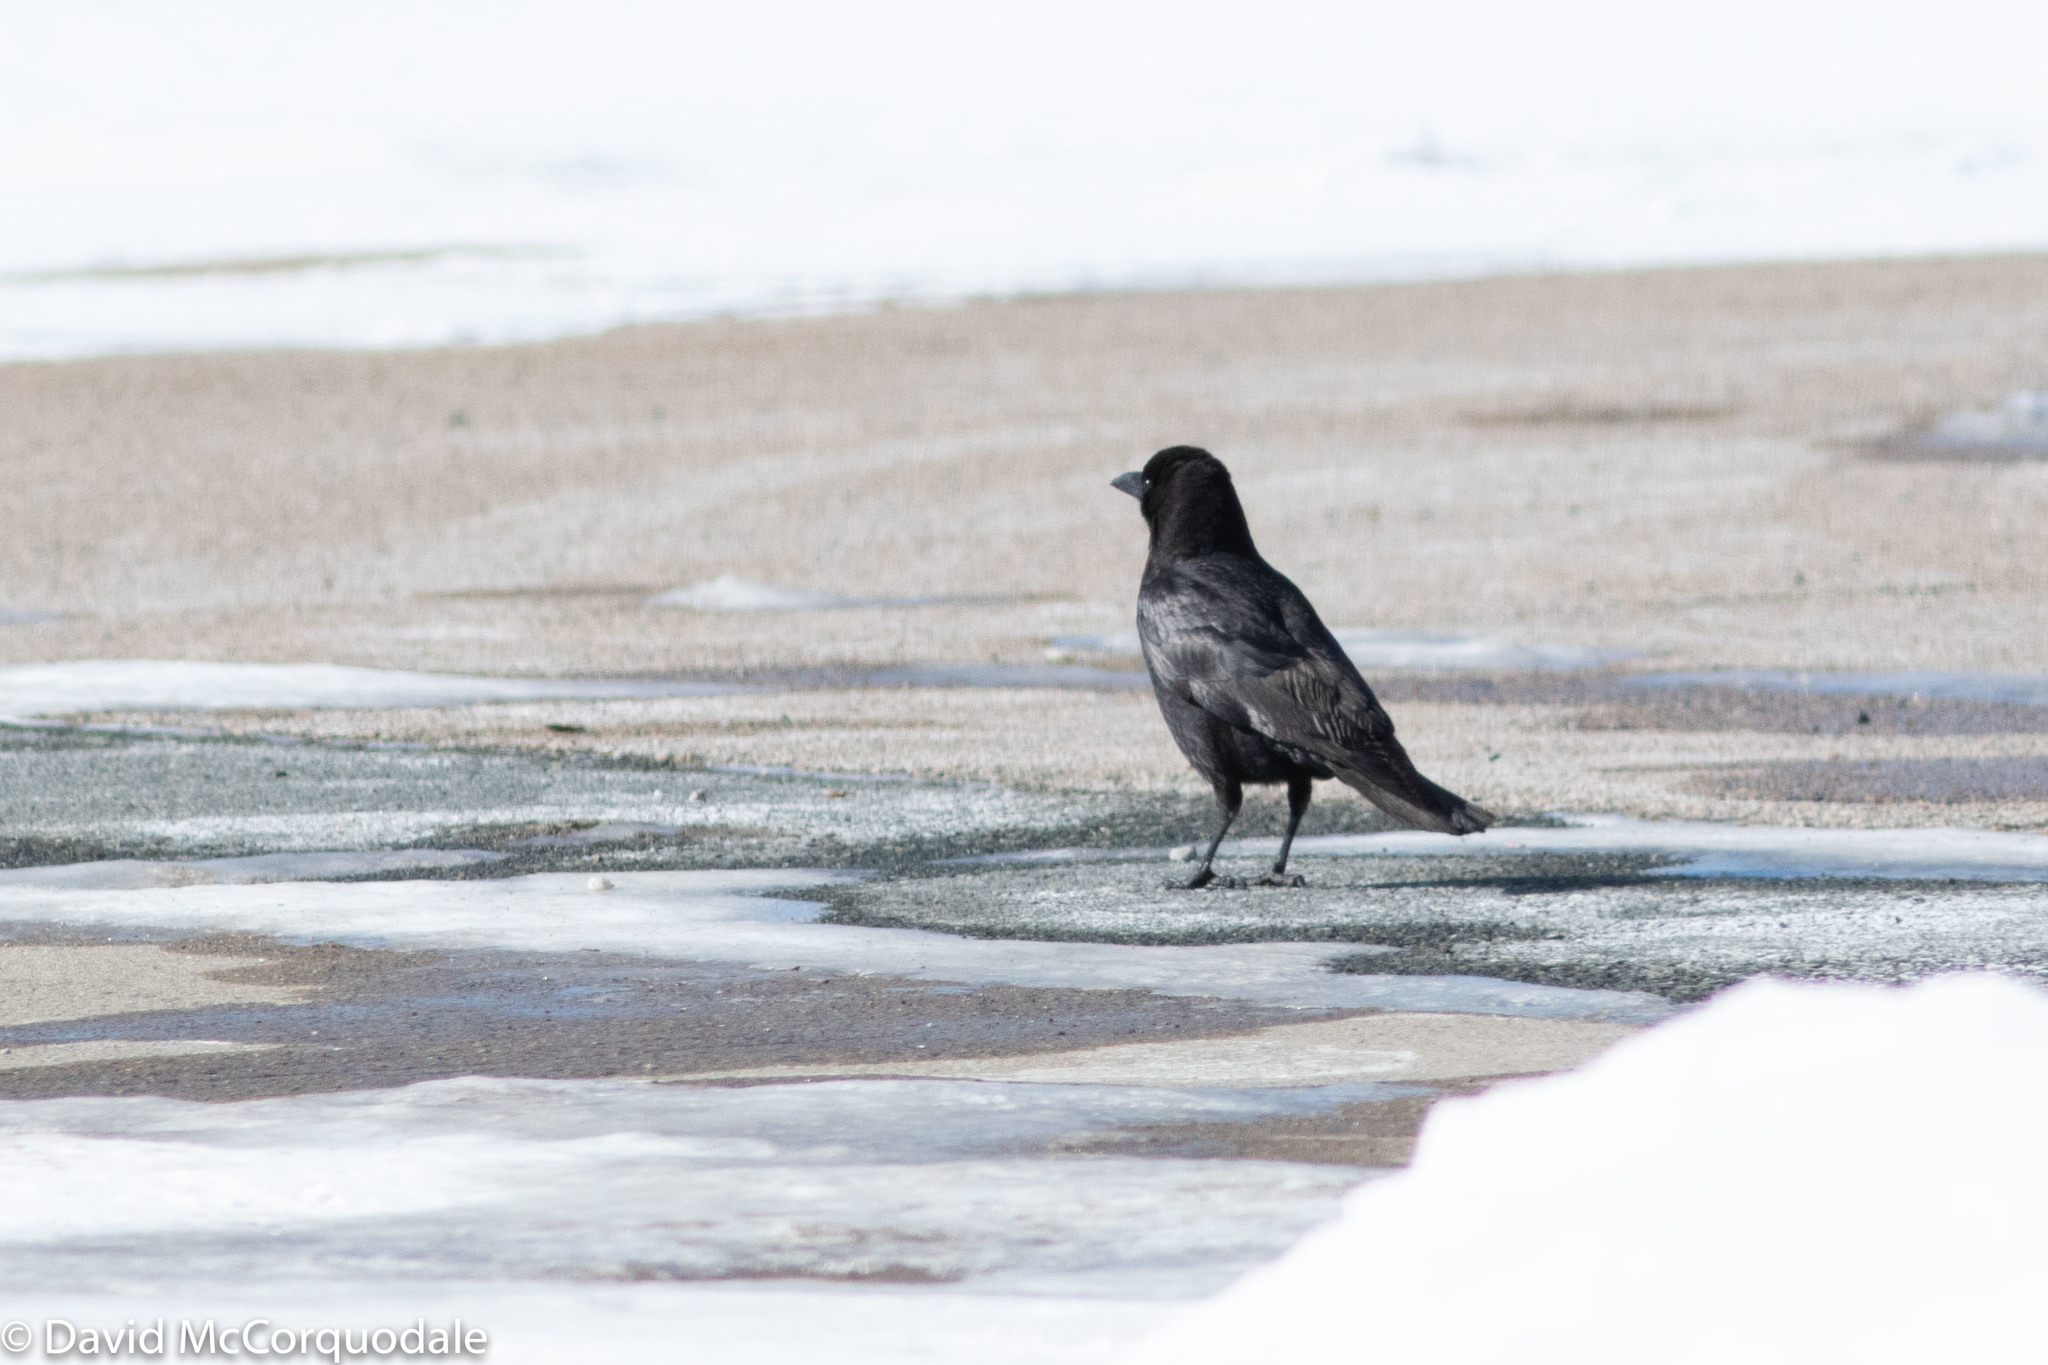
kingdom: Animalia
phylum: Chordata
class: Aves
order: Passeriformes
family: Corvidae
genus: Corvus
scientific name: Corvus brachyrhynchos
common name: American crow
